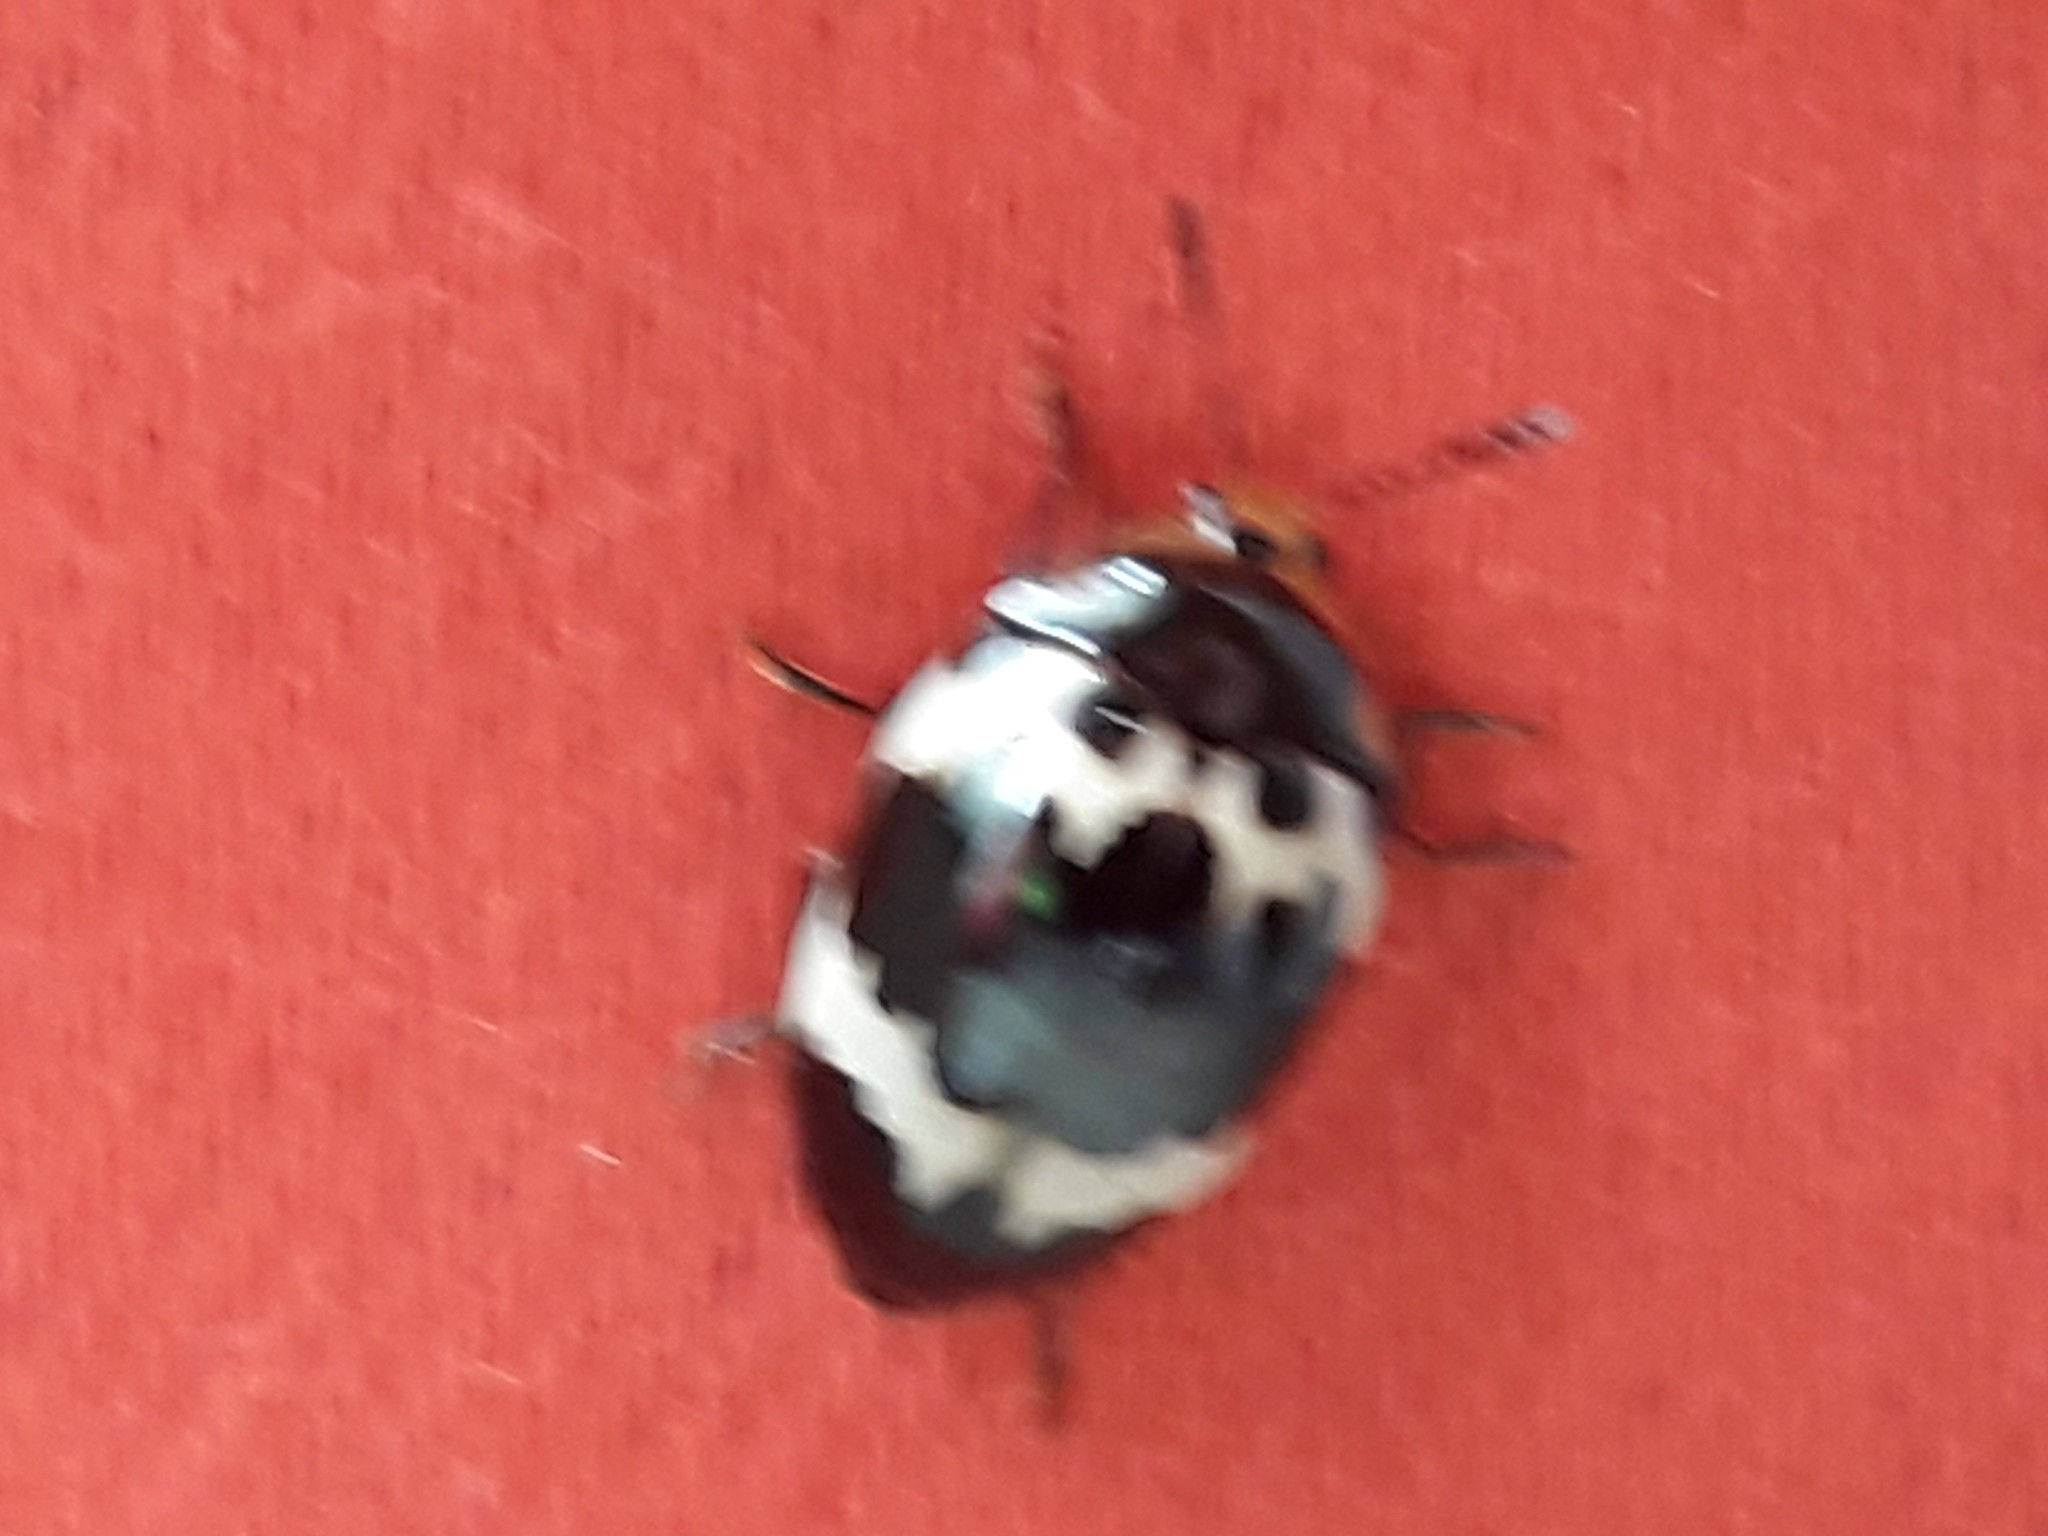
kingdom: Animalia
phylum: Arthropoda
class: Insecta
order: Coleoptera
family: Erotylidae
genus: Iphiclus
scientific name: Iphiclus delineatus
